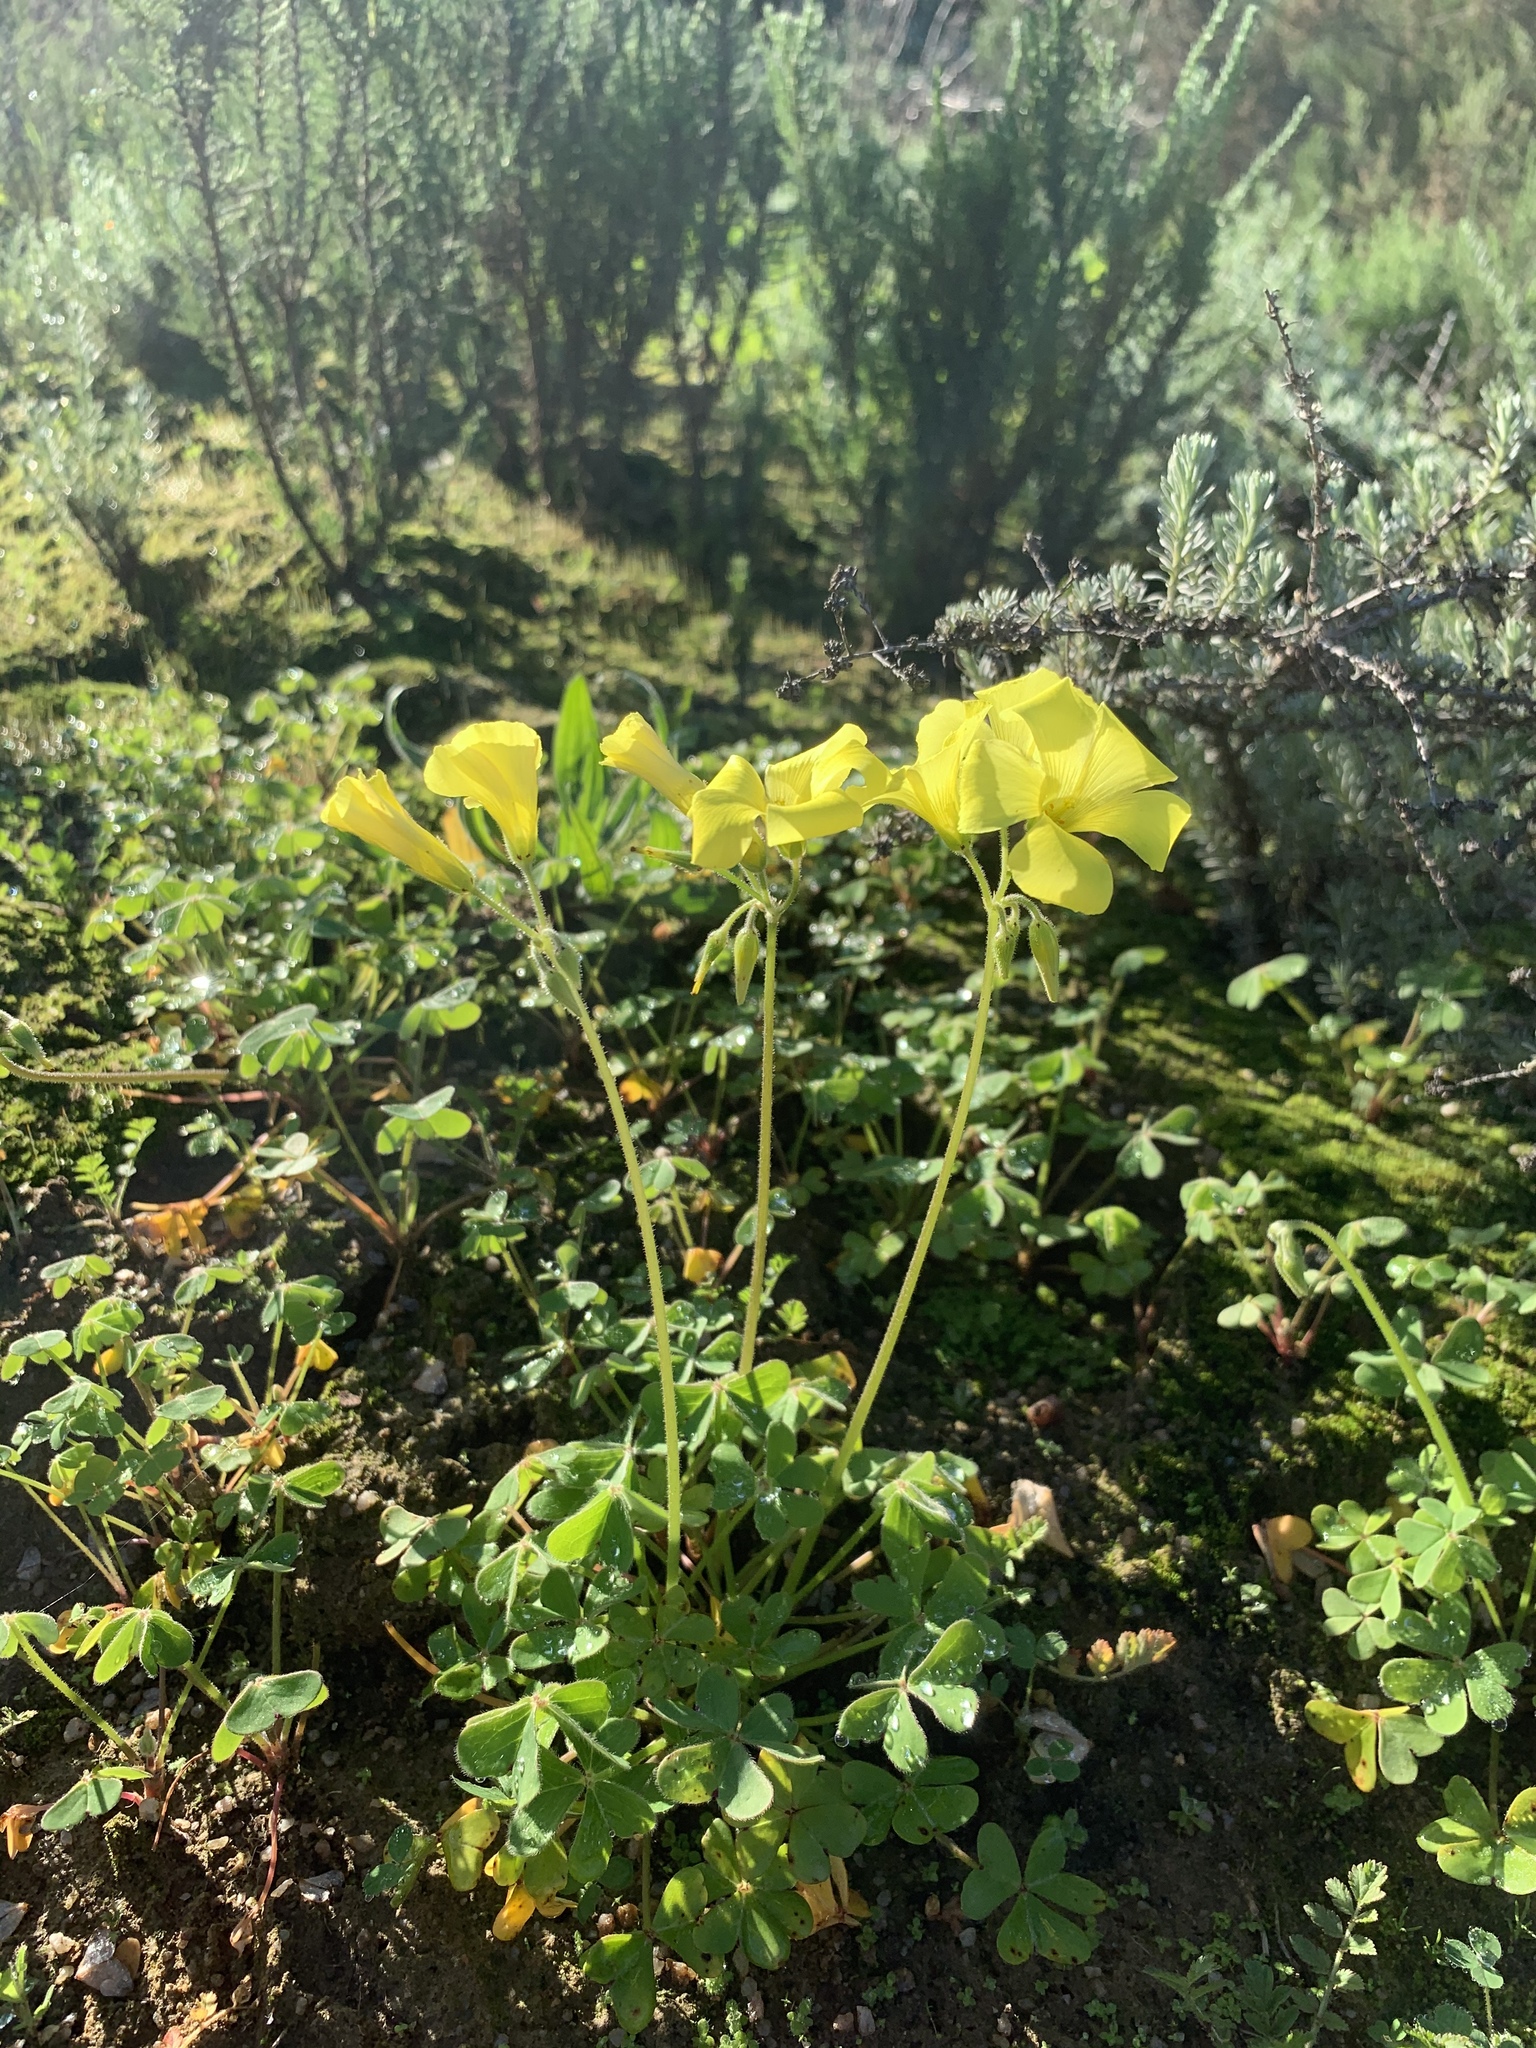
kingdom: Plantae
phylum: Tracheophyta
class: Magnoliopsida
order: Oxalidales
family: Oxalidaceae
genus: Oxalis
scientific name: Oxalis pes-caprae
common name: Bermuda-buttercup
